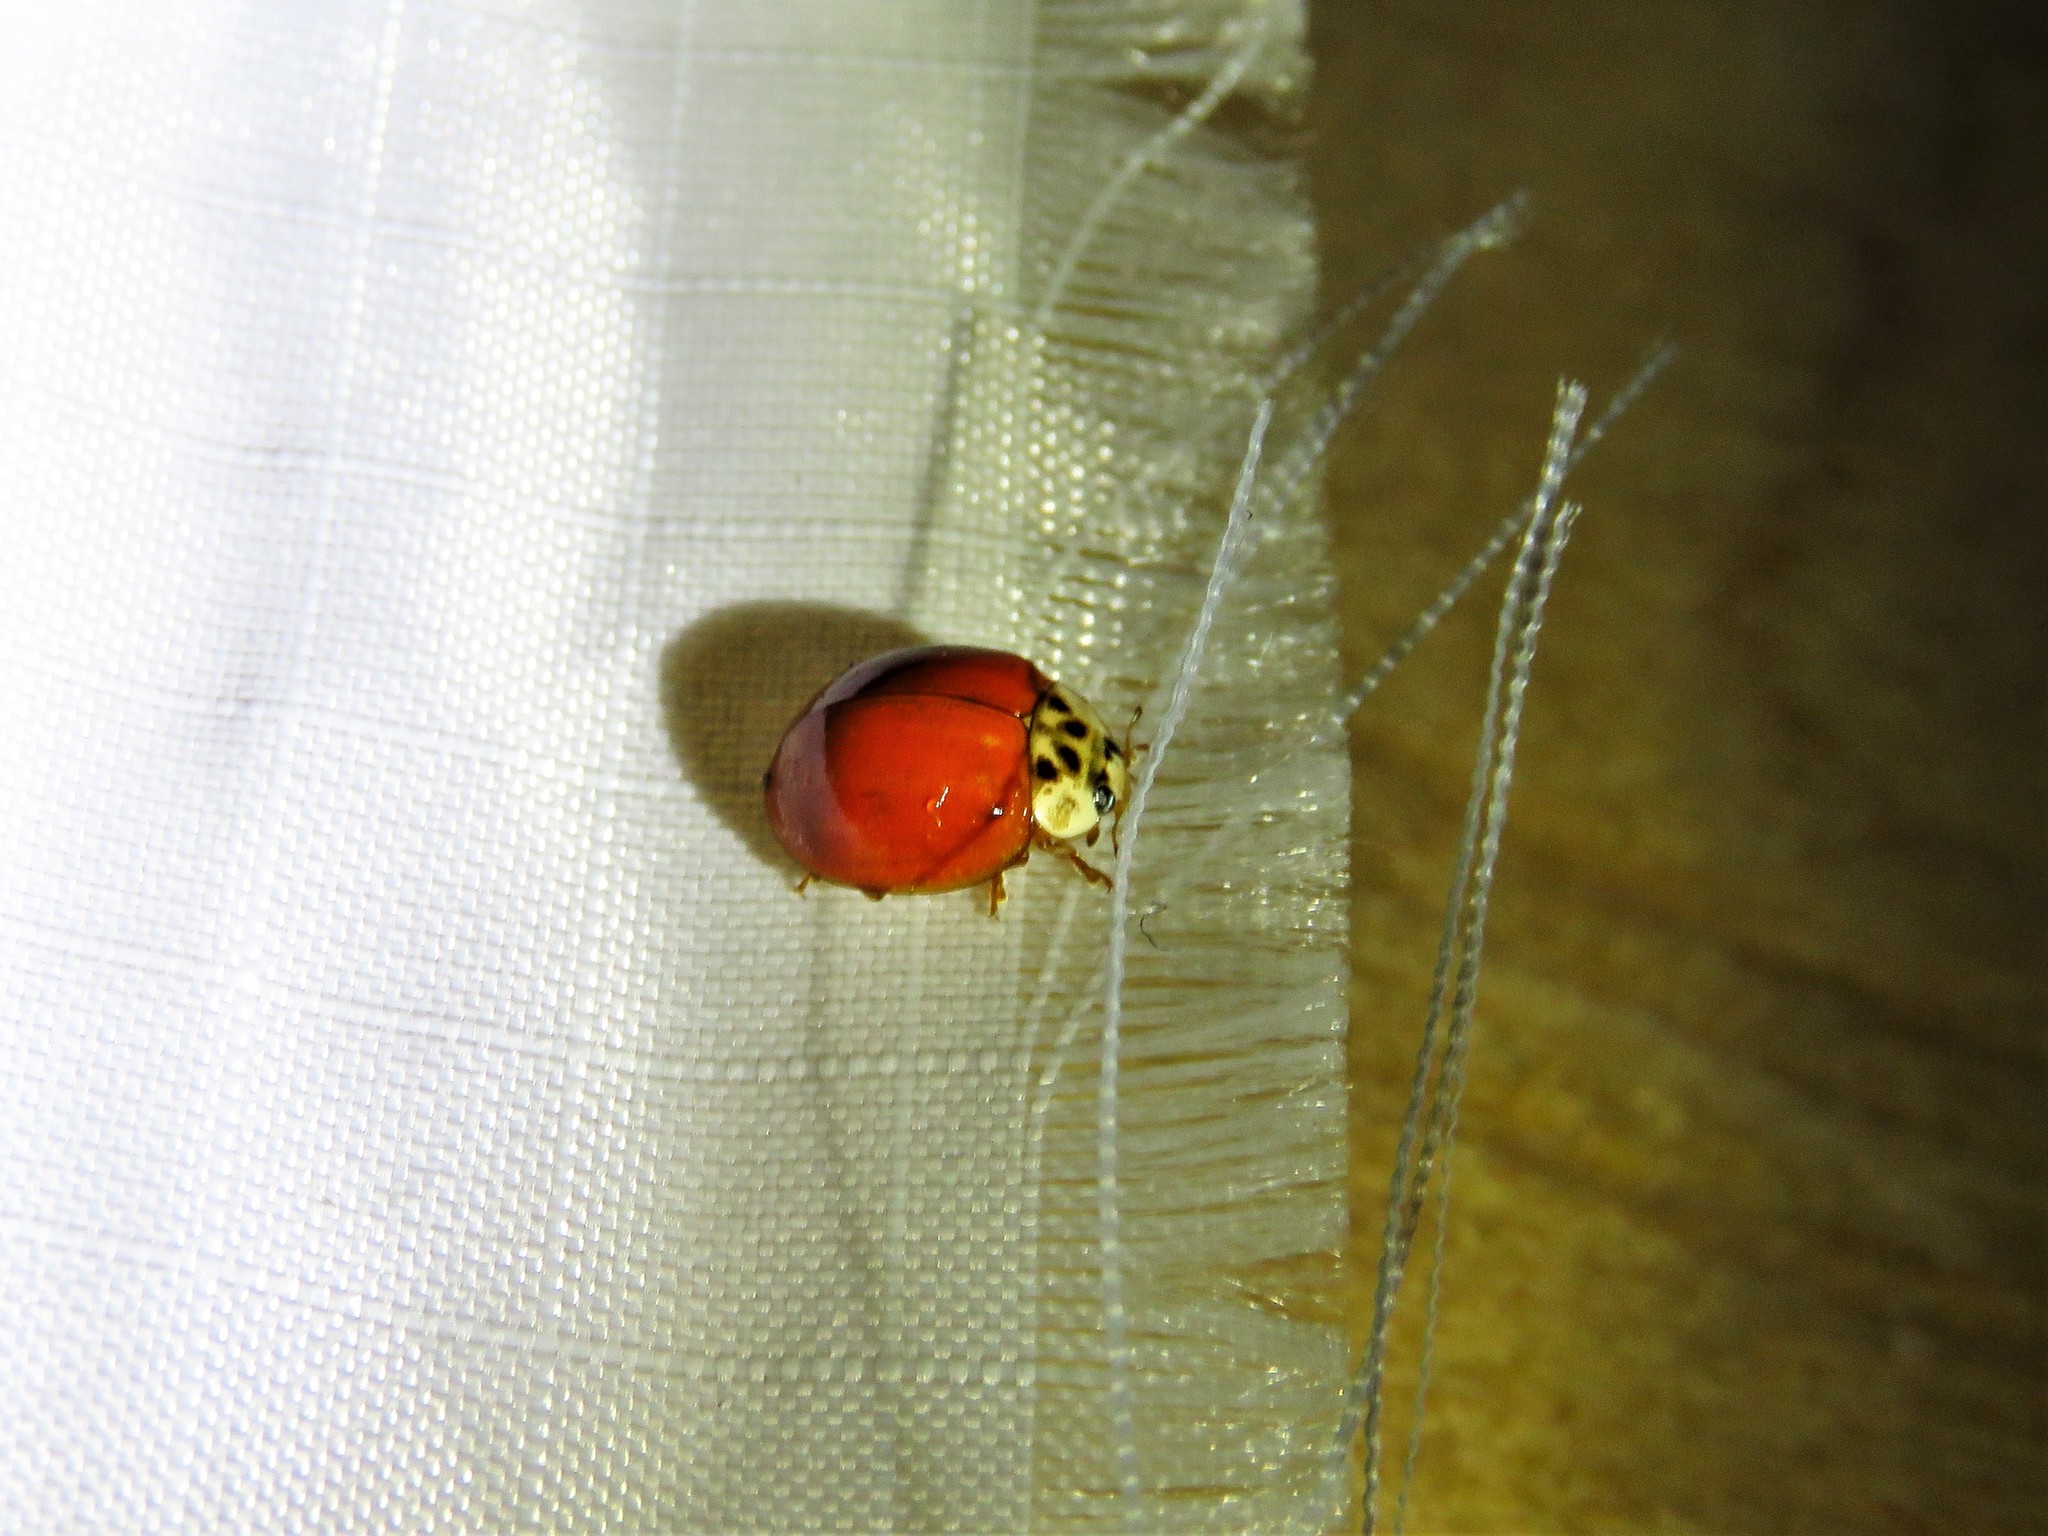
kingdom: Animalia
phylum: Arthropoda
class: Insecta
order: Coleoptera
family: Coccinellidae
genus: Harmonia
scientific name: Harmonia axyridis
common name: Harlequin ladybird
